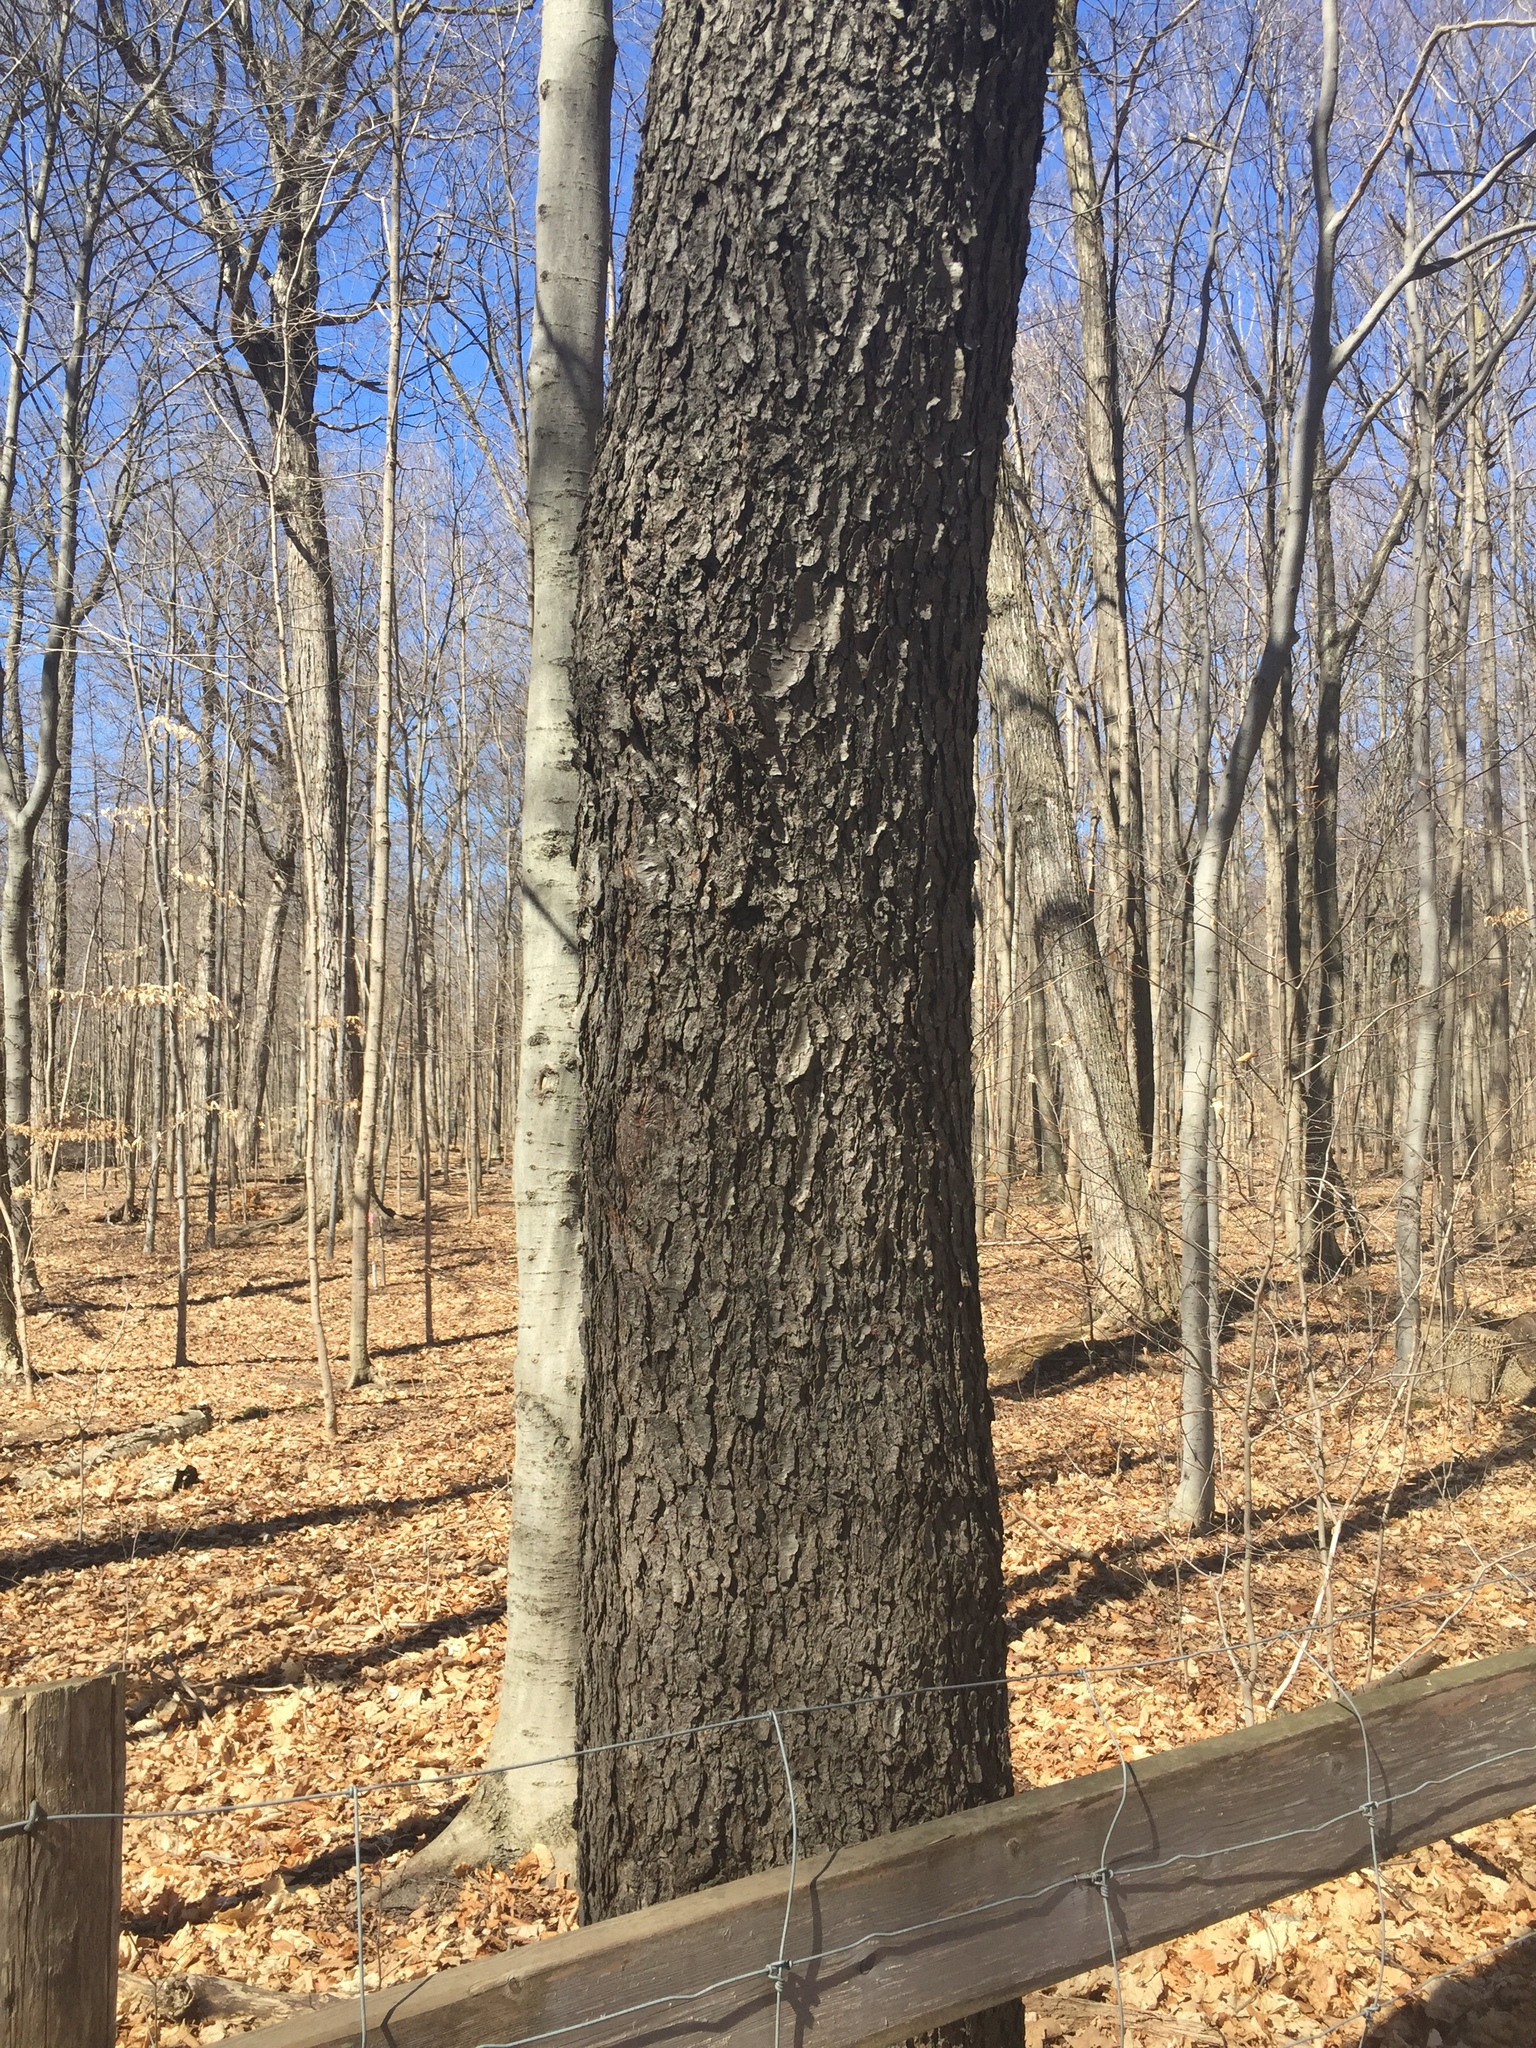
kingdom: Plantae
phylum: Tracheophyta
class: Magnoliopsida
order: Rosales
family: Rosaceae
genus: Prunus
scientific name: Prunus serotina
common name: Black cherry
